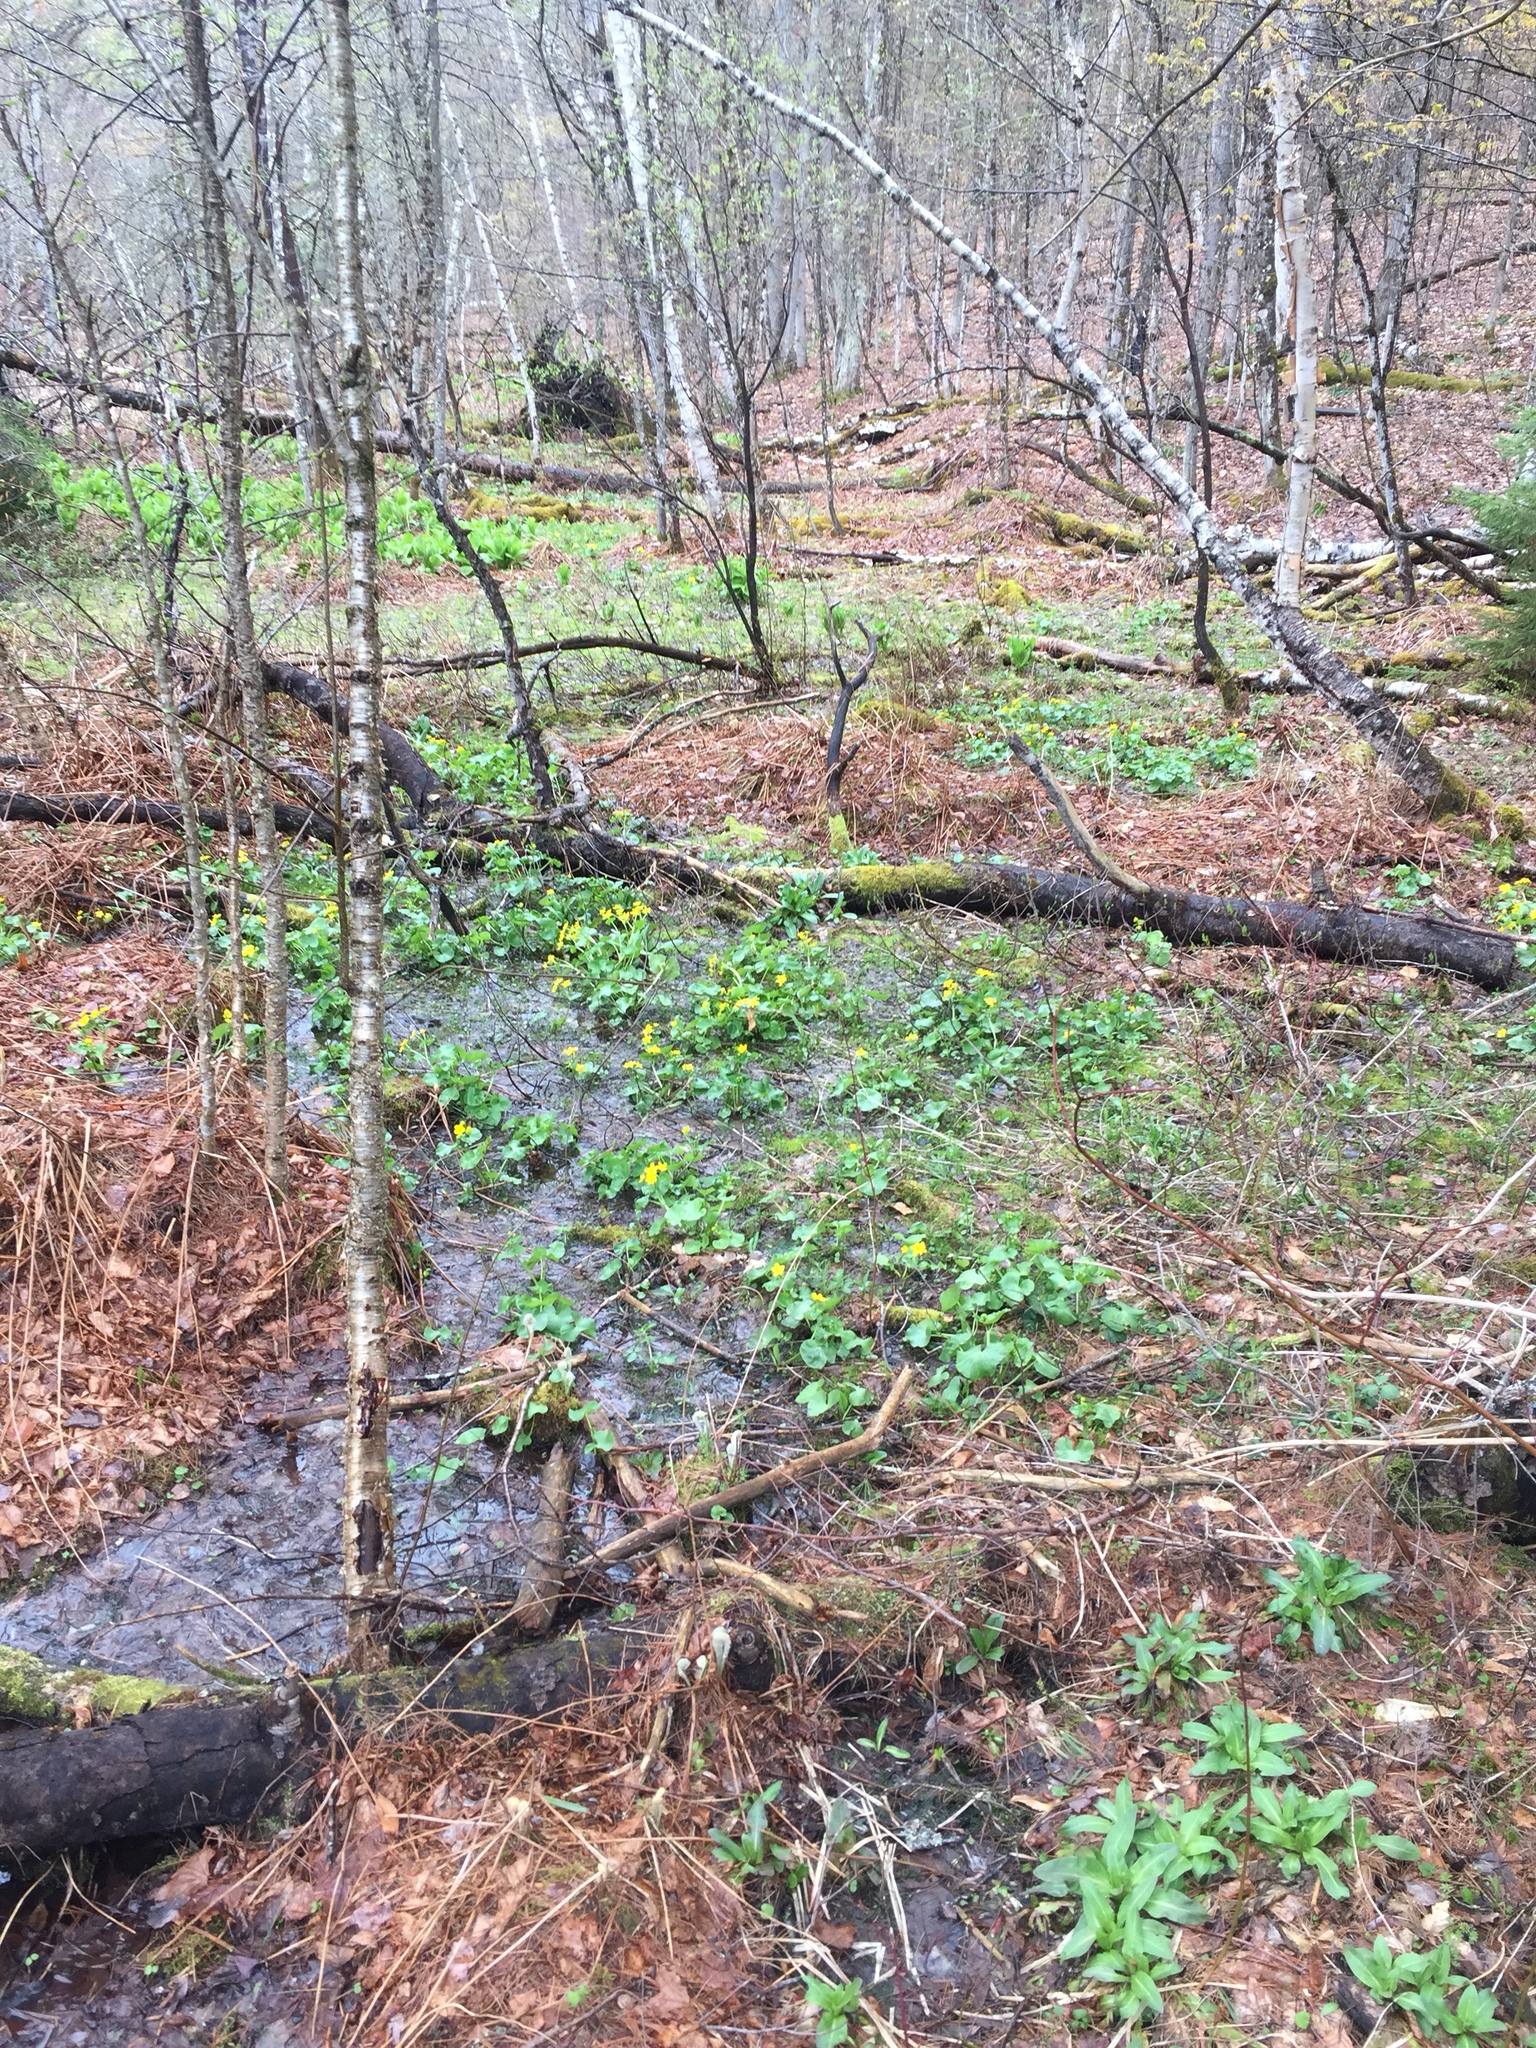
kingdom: Plantae
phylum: Tracheophyta
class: Magnoliopsida
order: Ranunculales
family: Ranunculaceae
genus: Caltha
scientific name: Caltha palustris
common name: Marsh marigold
